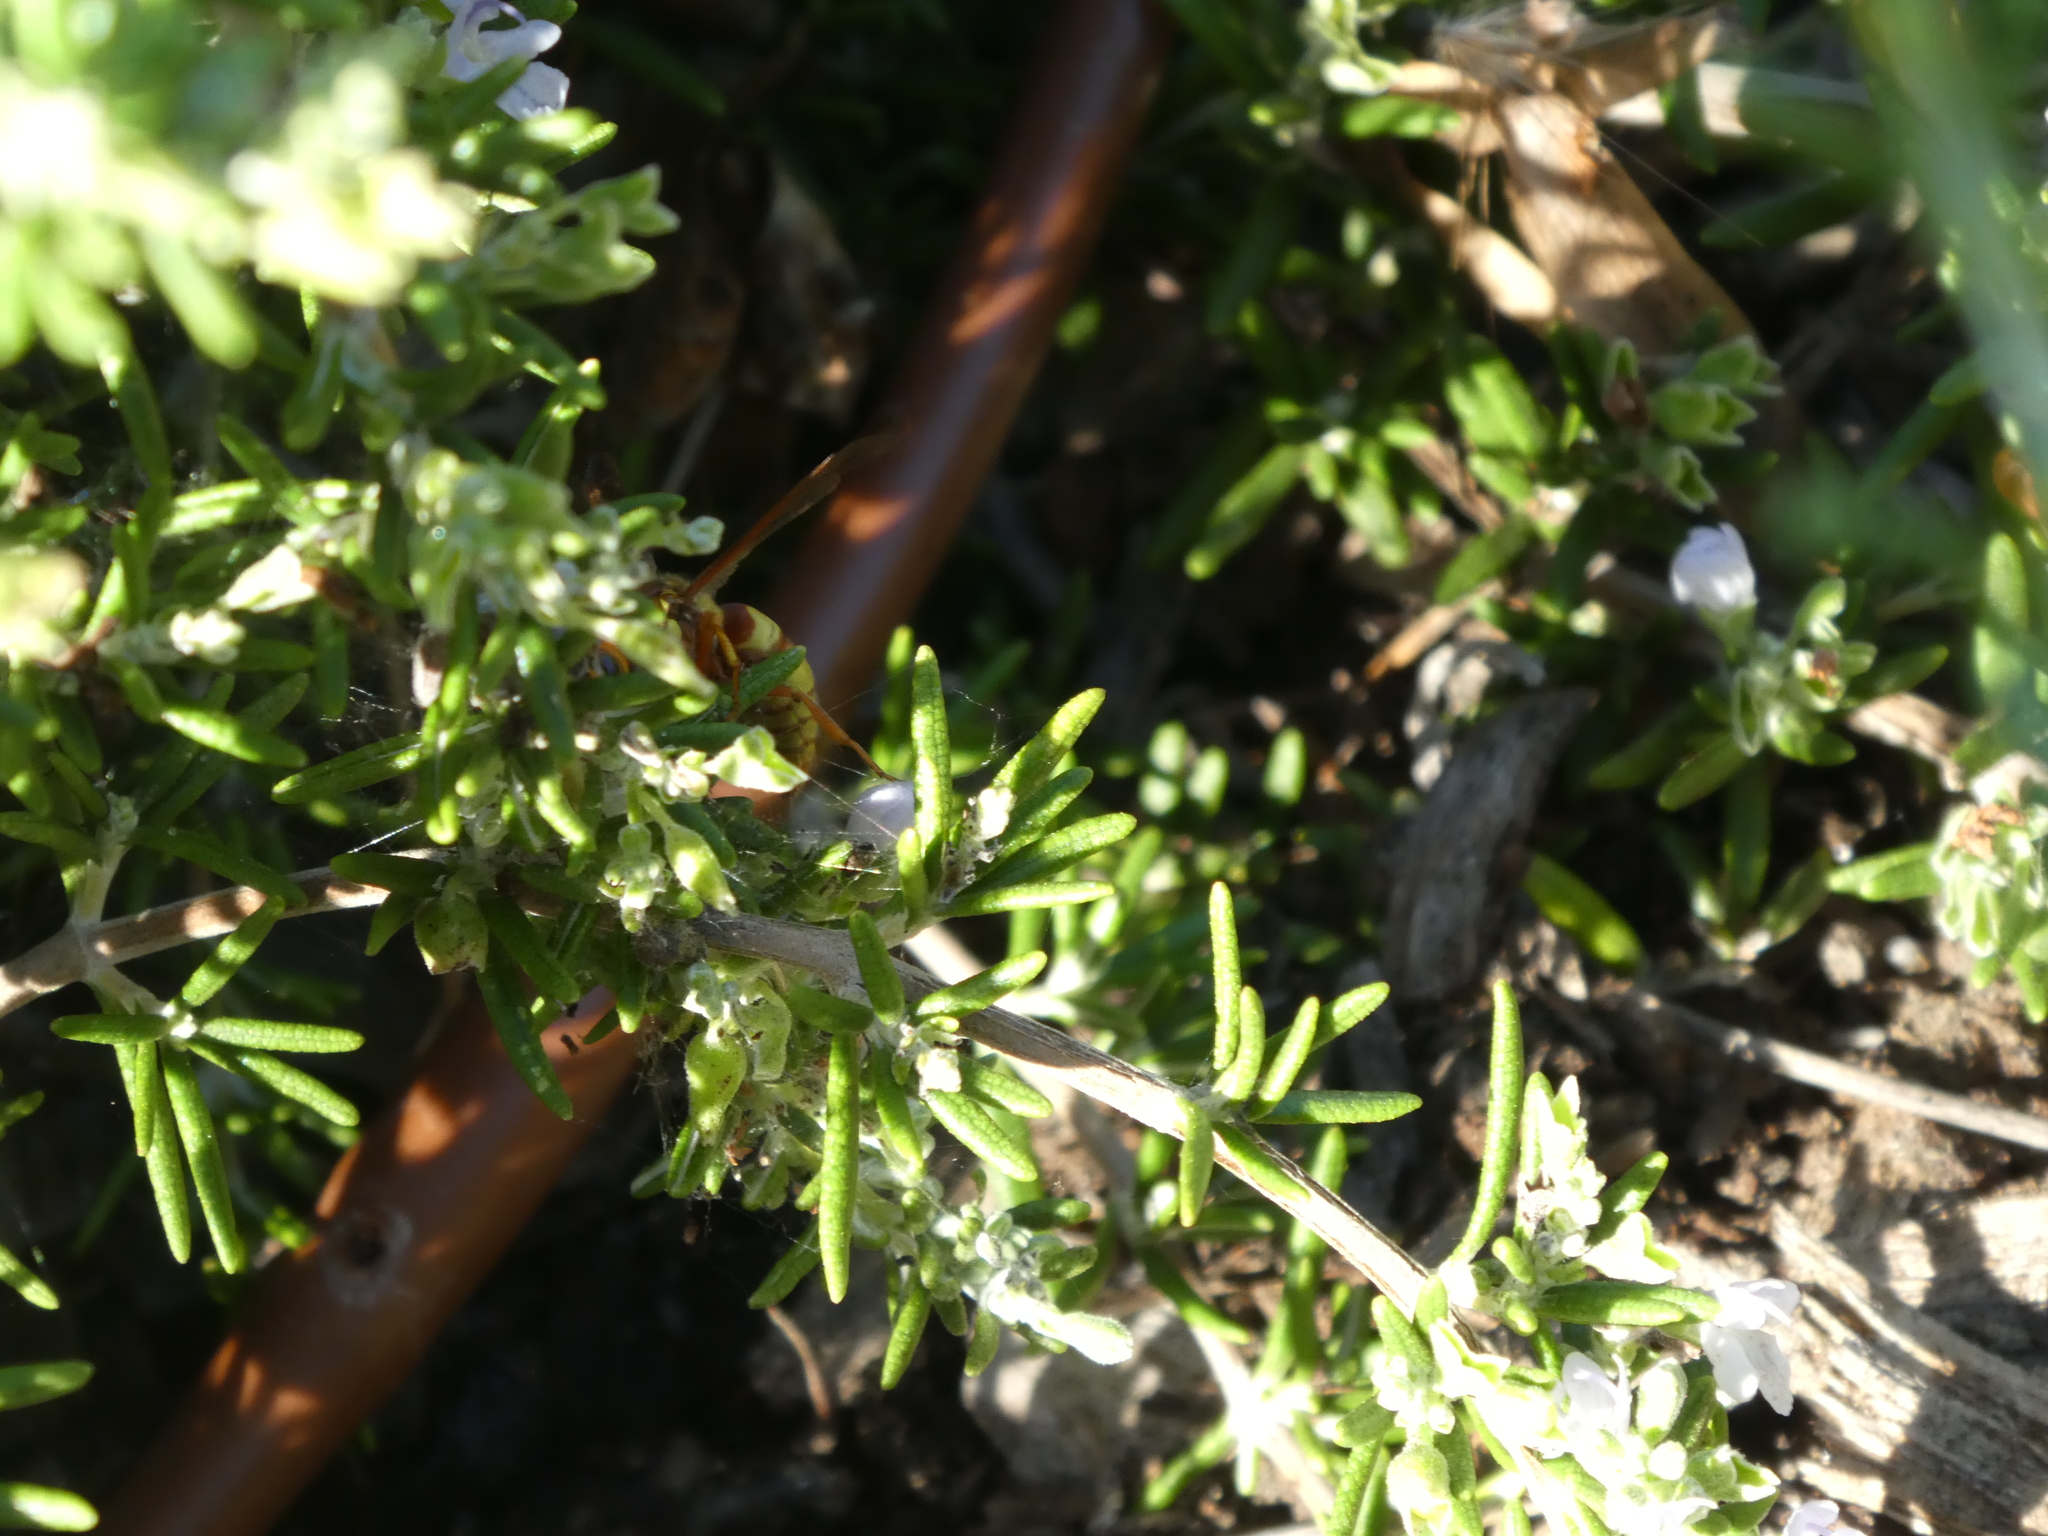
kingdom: Animalia
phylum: Arthropoda
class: Insecta
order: Hymenoptera
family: Eumenidae
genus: Euodynerus
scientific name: Euodynerus
